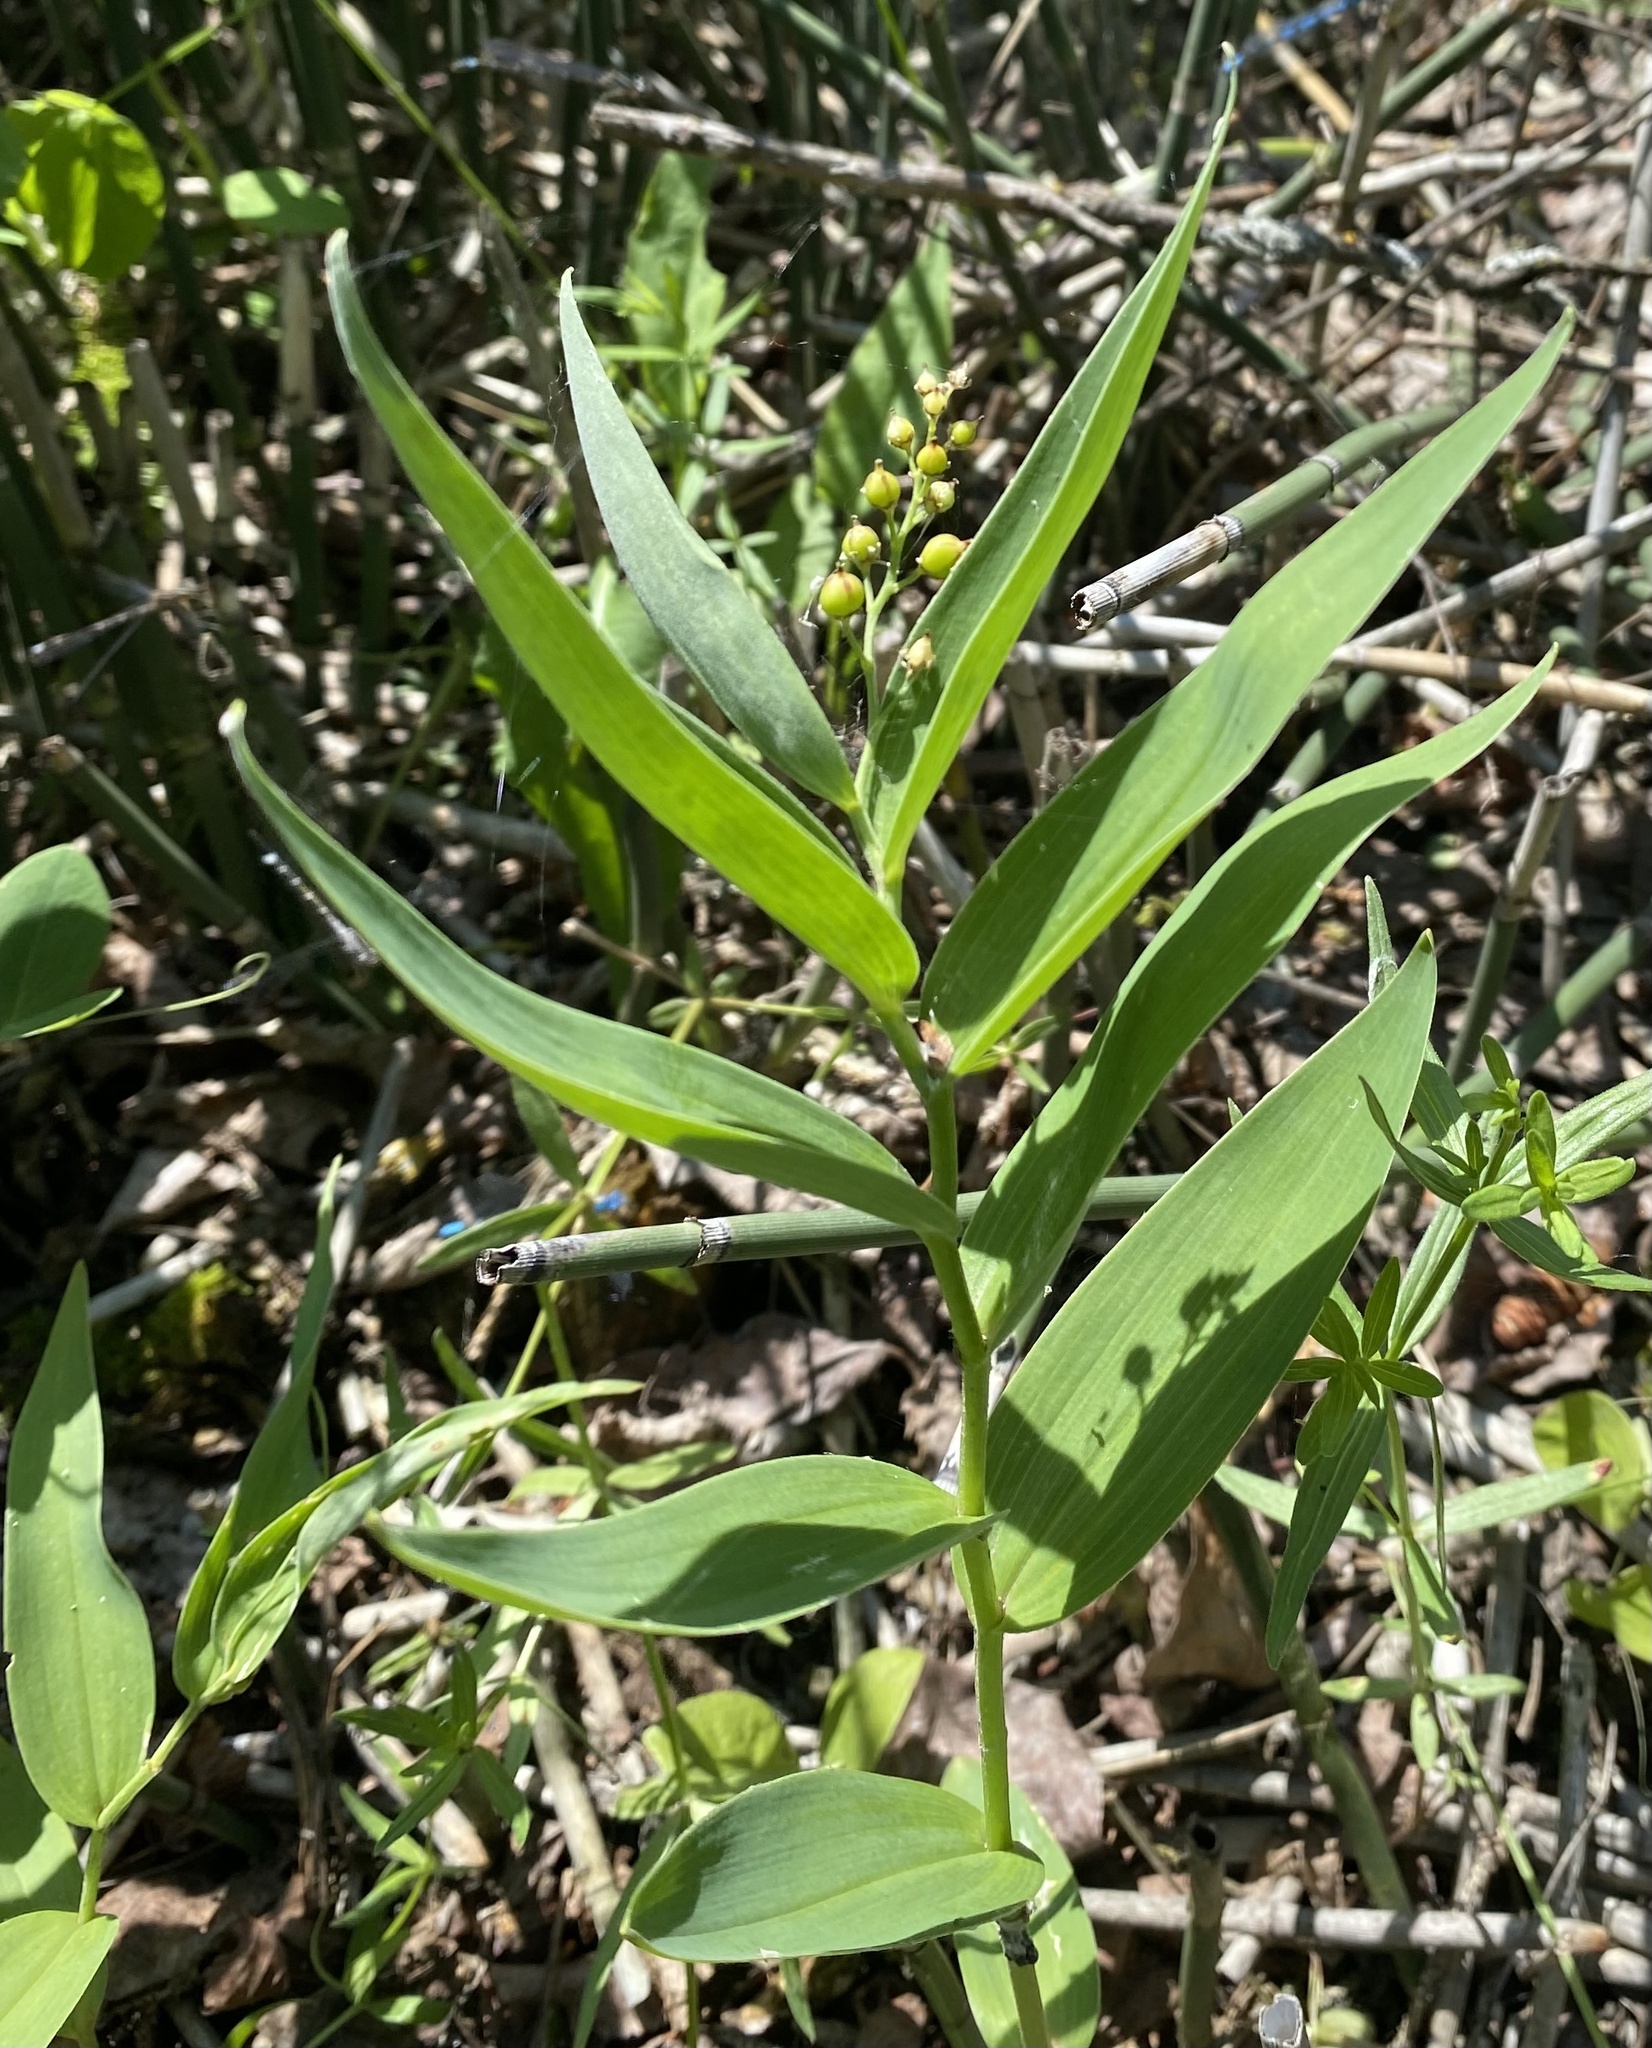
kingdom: Plantae
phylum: Tracheophyta
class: Liliopsida
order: Asparagales
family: Asparagaceae
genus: Maianthemum
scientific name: Maianthemum stellatum
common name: Little false solomon's seal
